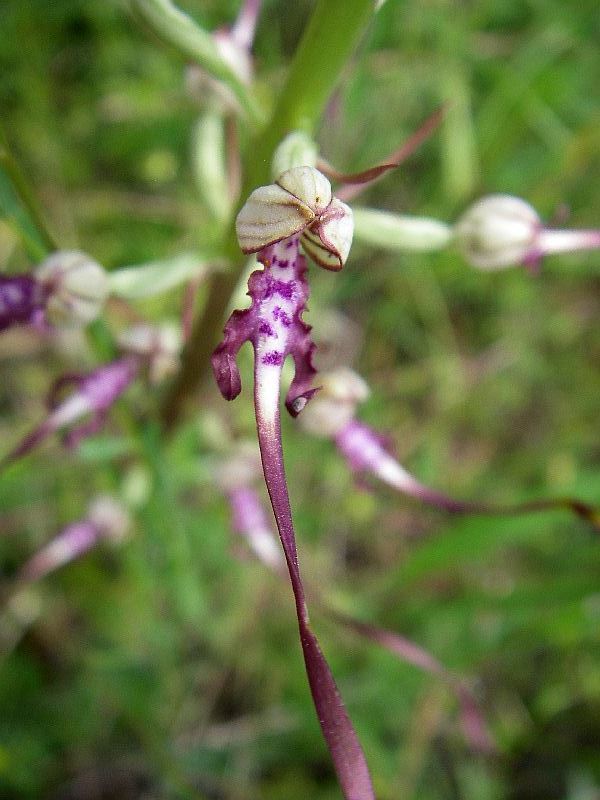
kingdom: Plantae
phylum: Tracheophyta
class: Liliopsida
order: Asparagales
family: Orchidaceae
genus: Himantoglossum
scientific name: Himantoglossum adriaticum
